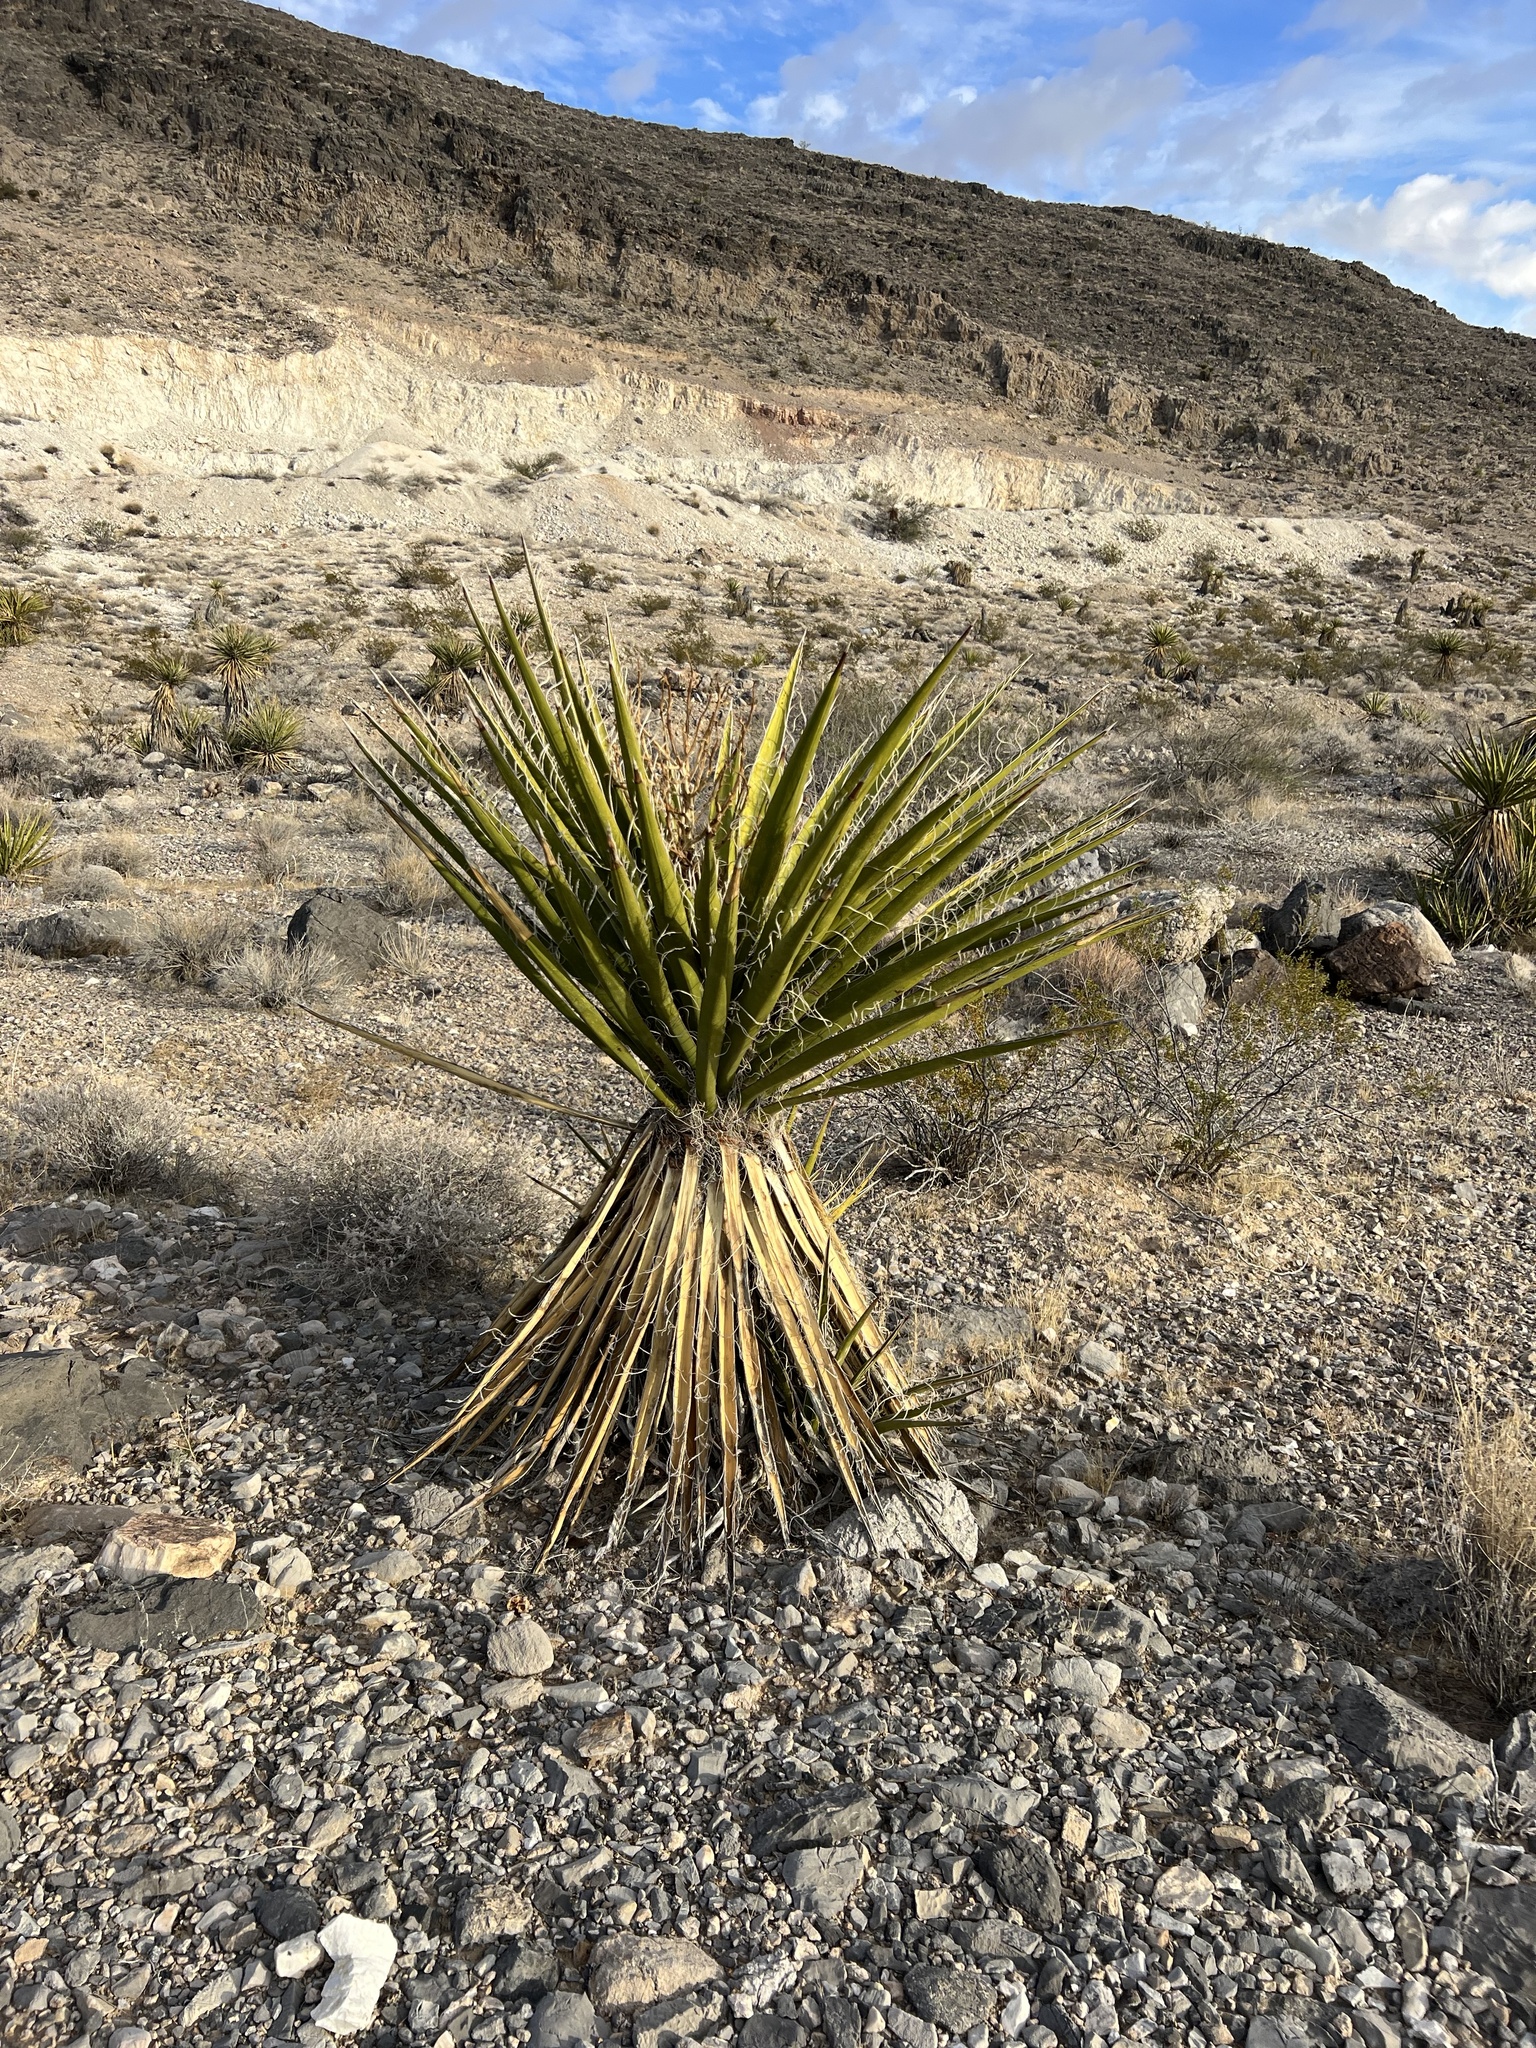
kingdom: Plantae
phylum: Tracheophyta
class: Liliopsida
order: Asparagales
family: Asparagaceae
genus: Yucca
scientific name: Yucca schidigera
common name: Mojave yucca
